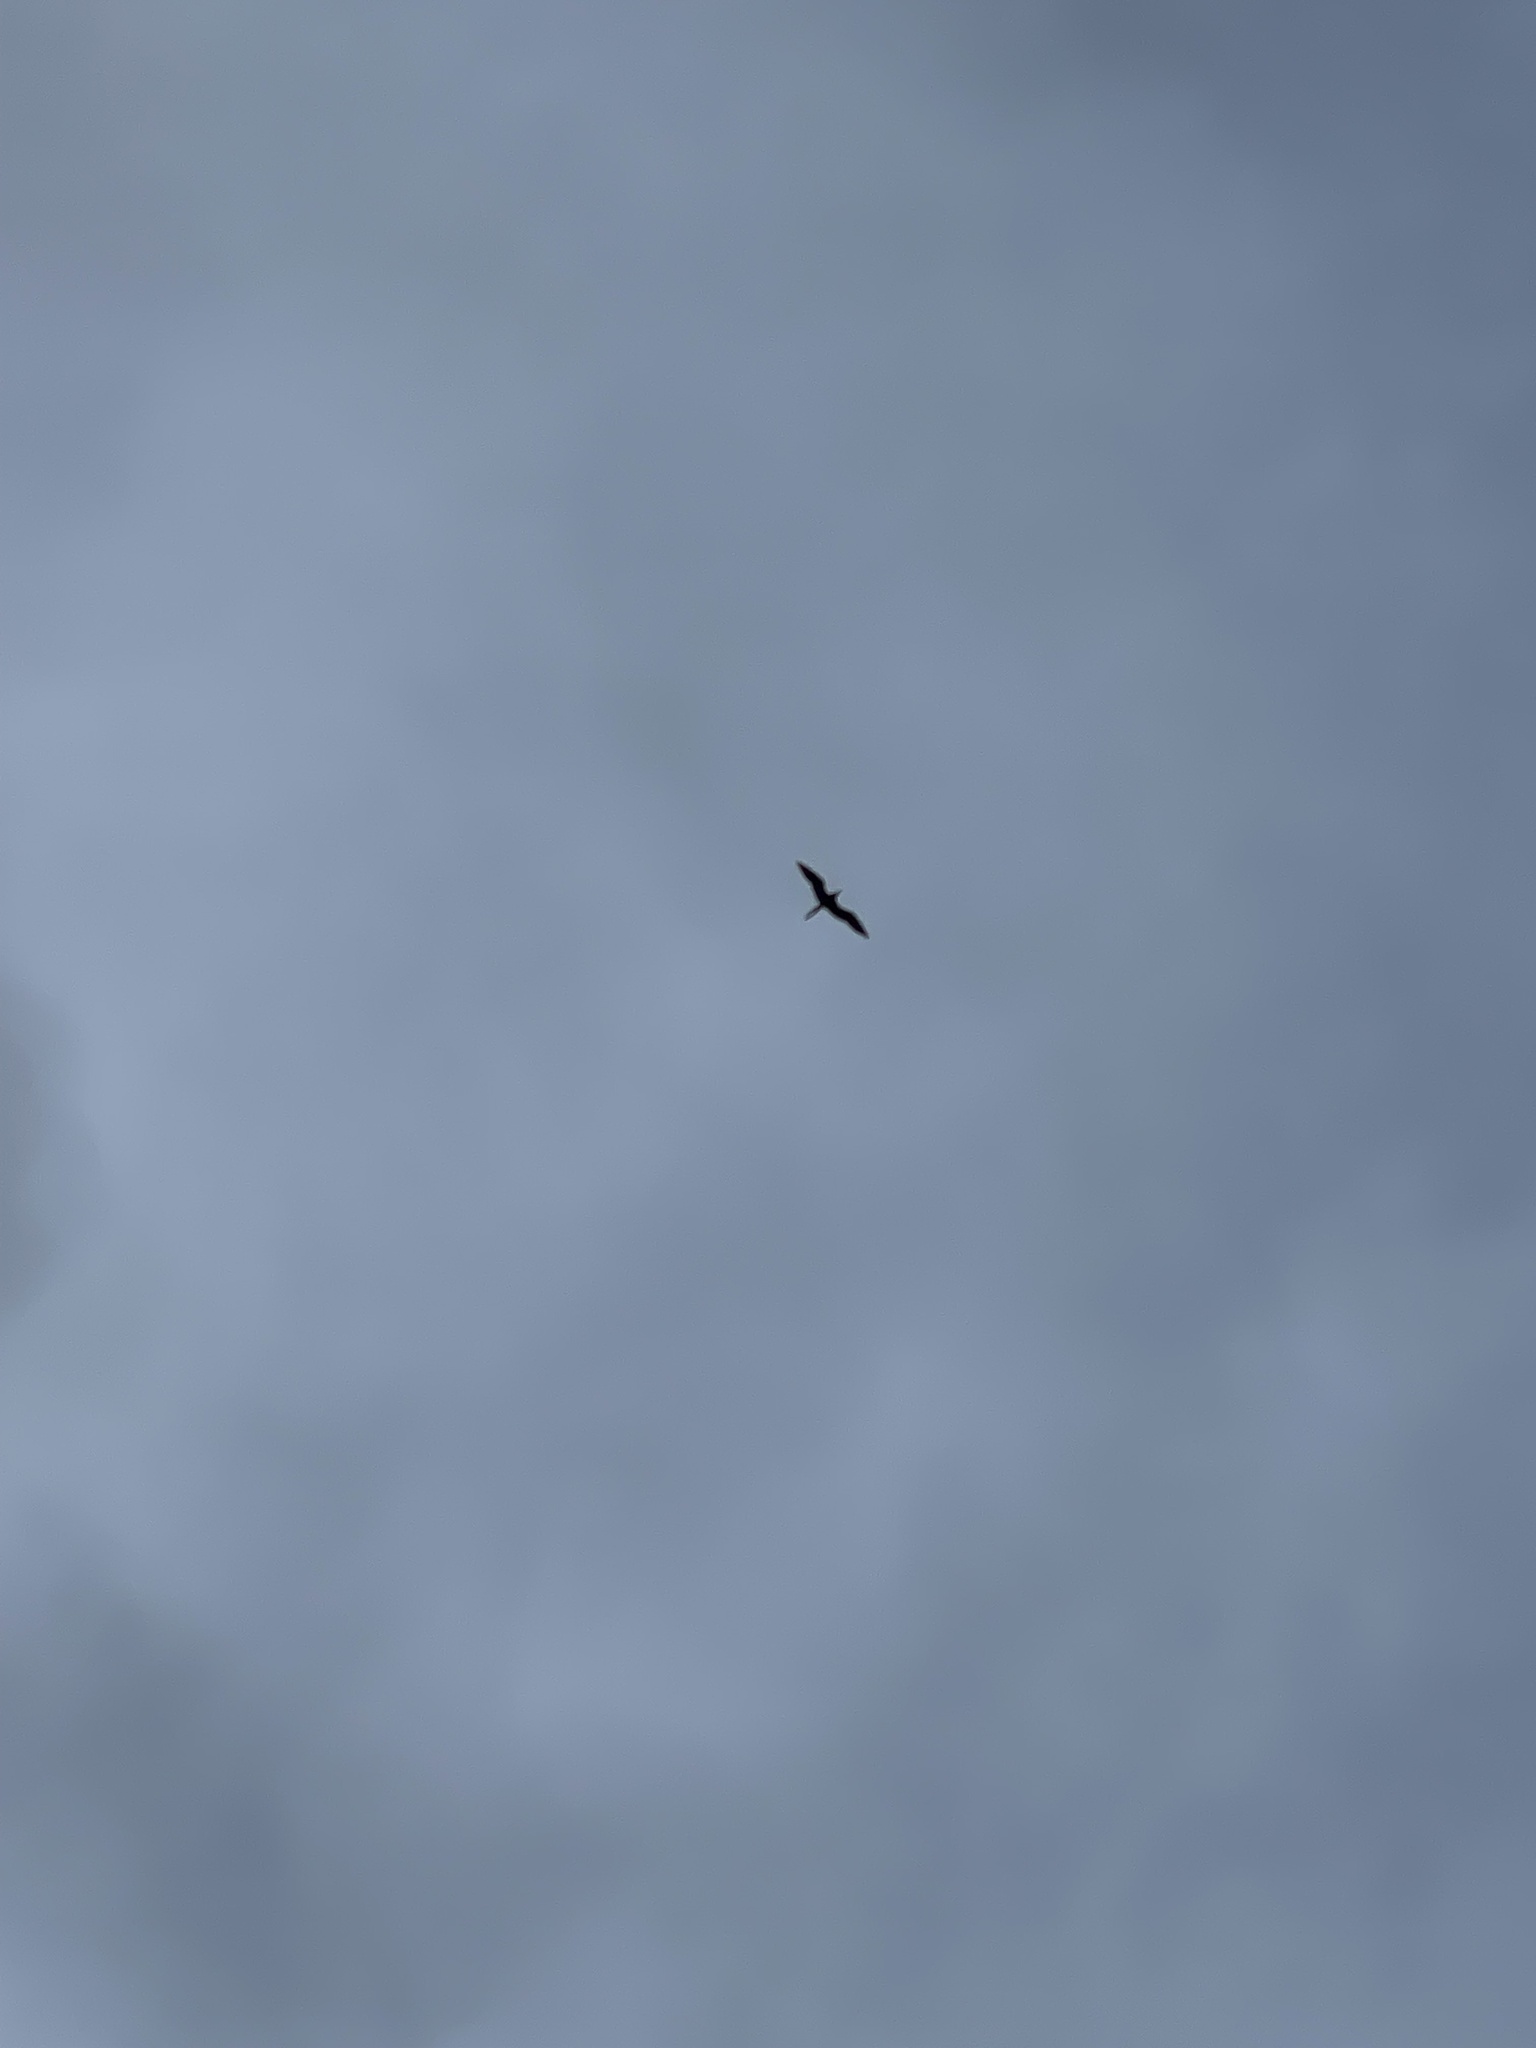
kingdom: Animalia
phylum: Chordata
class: Aves
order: Suliformes
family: Fregatidae
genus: Fregata
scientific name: Fregata magnificens
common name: Magnificent frigatebird
